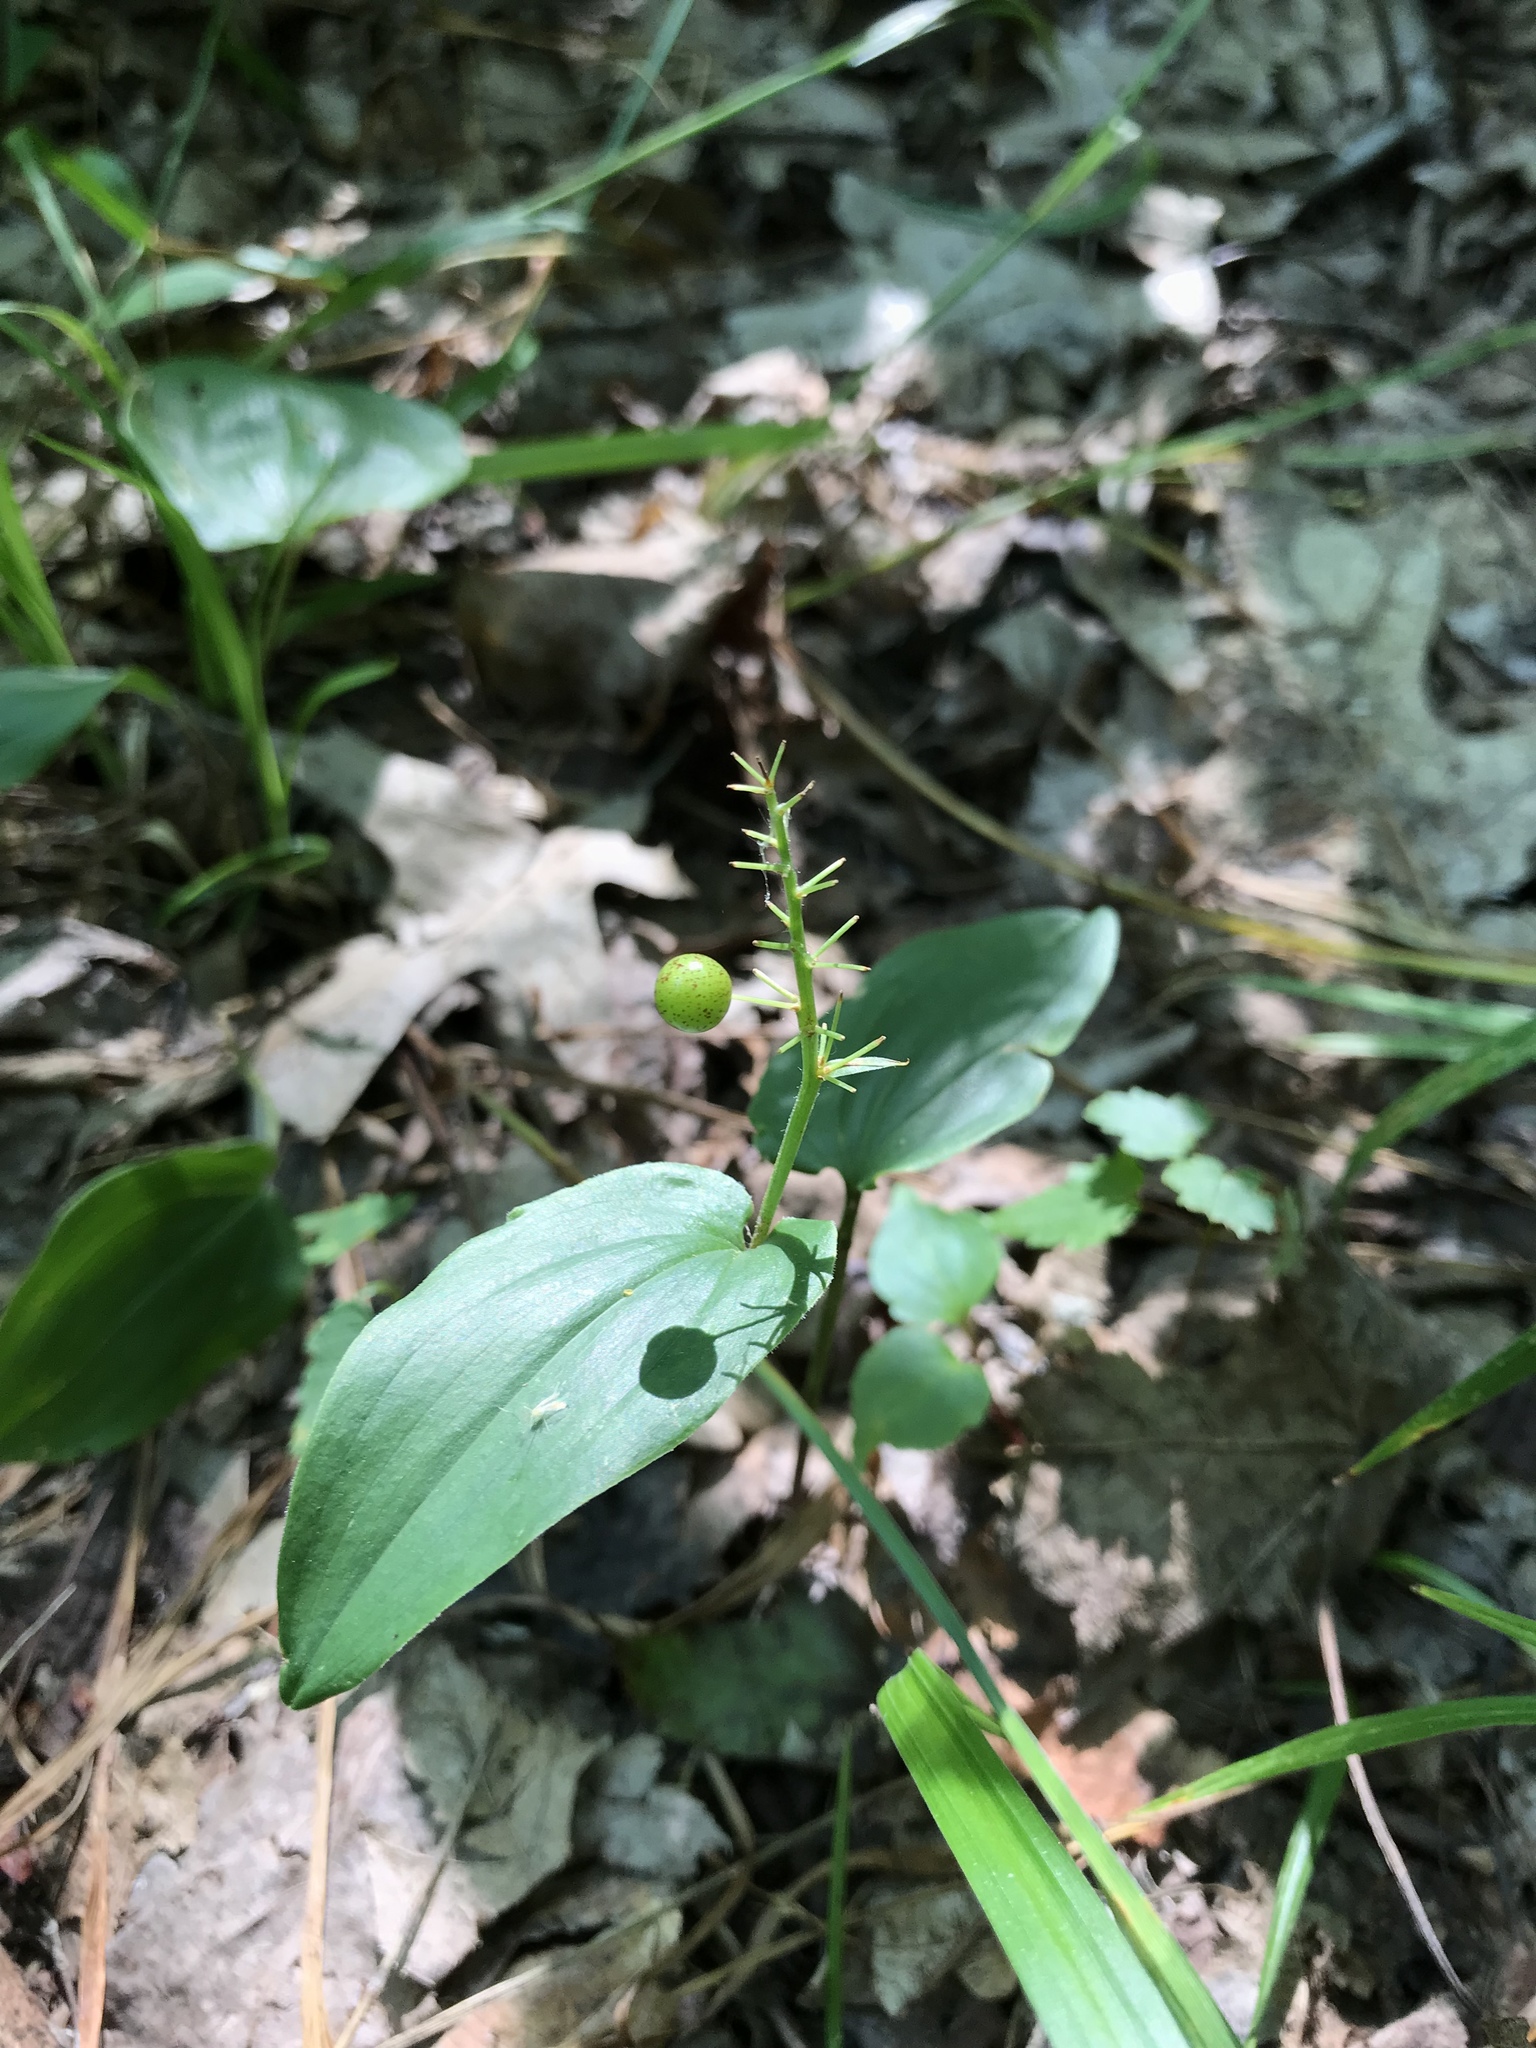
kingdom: Plantae
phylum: Tracheophyta
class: Liliopsida
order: Asparagales
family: Asparagaceae
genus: Maianthemum
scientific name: Maianthemum canadense
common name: False lily-of-the-valley
